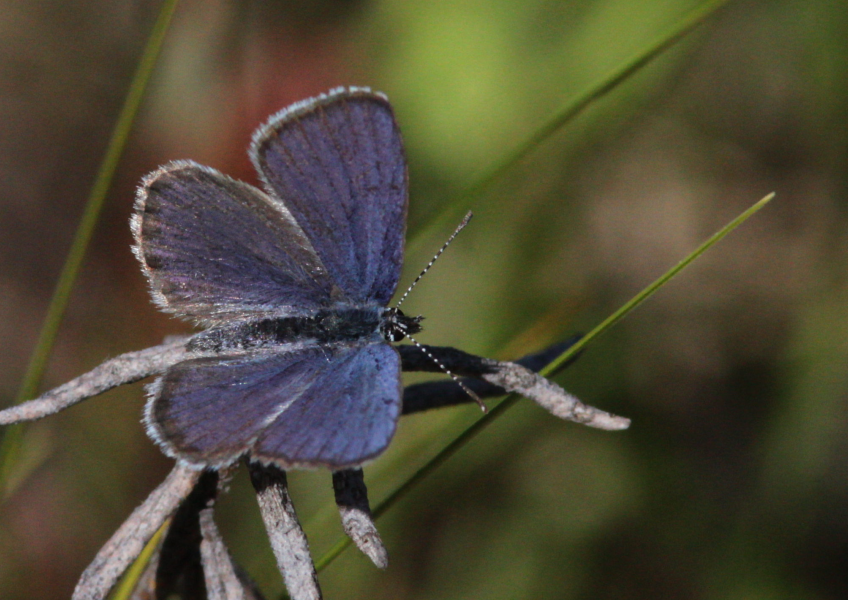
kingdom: Animalia
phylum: Arthropoda
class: Insecta
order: Lepidoptera
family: Lycaenidae
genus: Vacciniina
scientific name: Vacciniina optilete
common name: Cranberry blue
